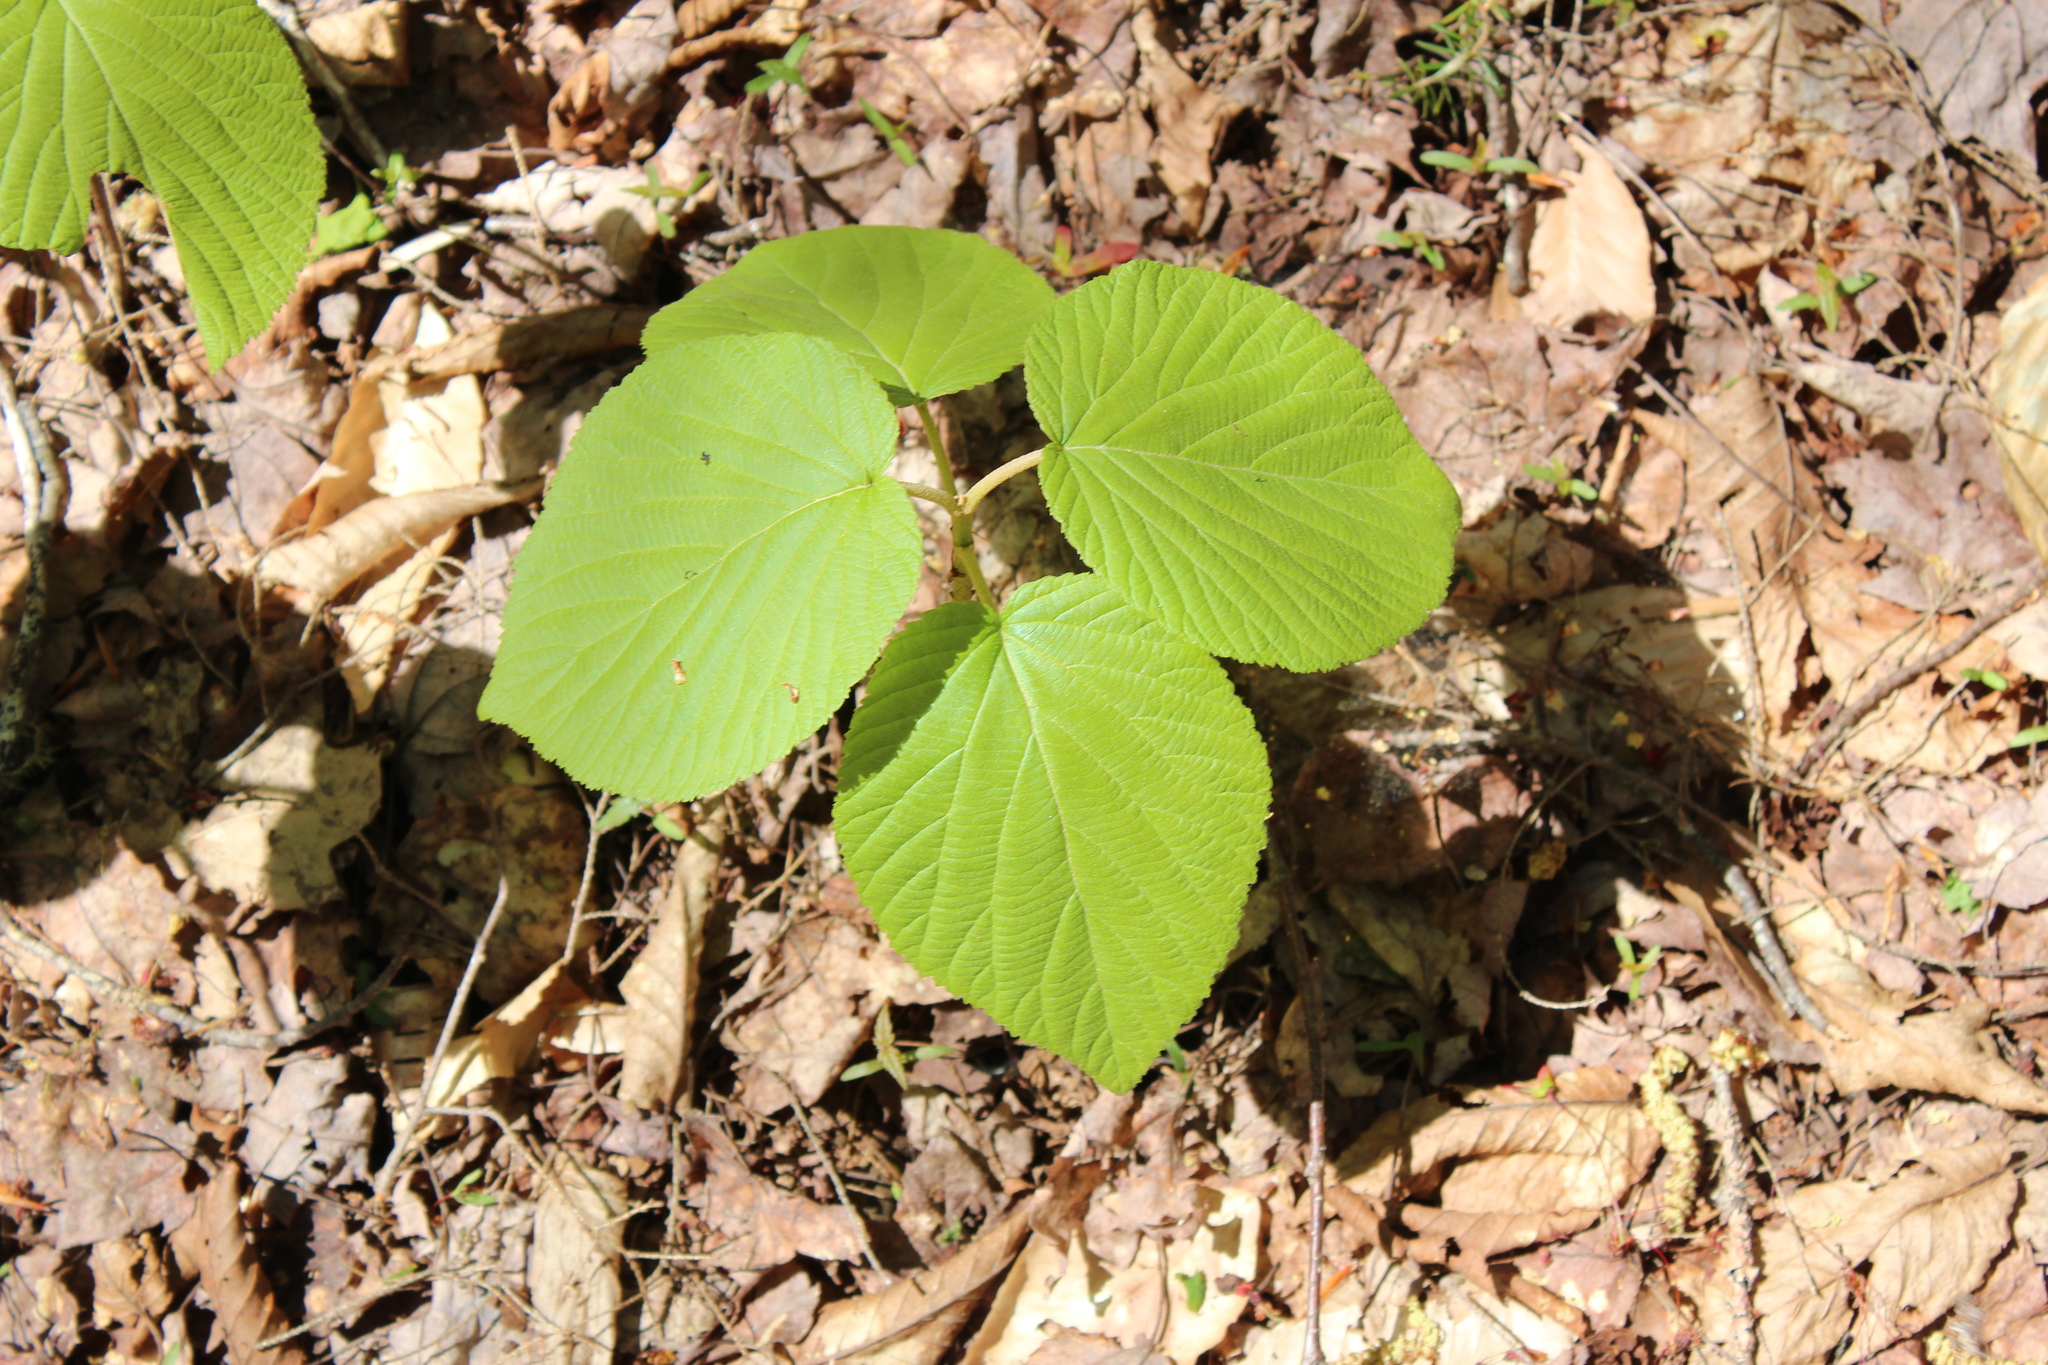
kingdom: Plantae
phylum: Tracheophyta
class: Magnoliopsida
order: Dipsacales
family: Viburnaceae
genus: Viburnum
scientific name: Viburnum lantanoides
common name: Hobblebush
